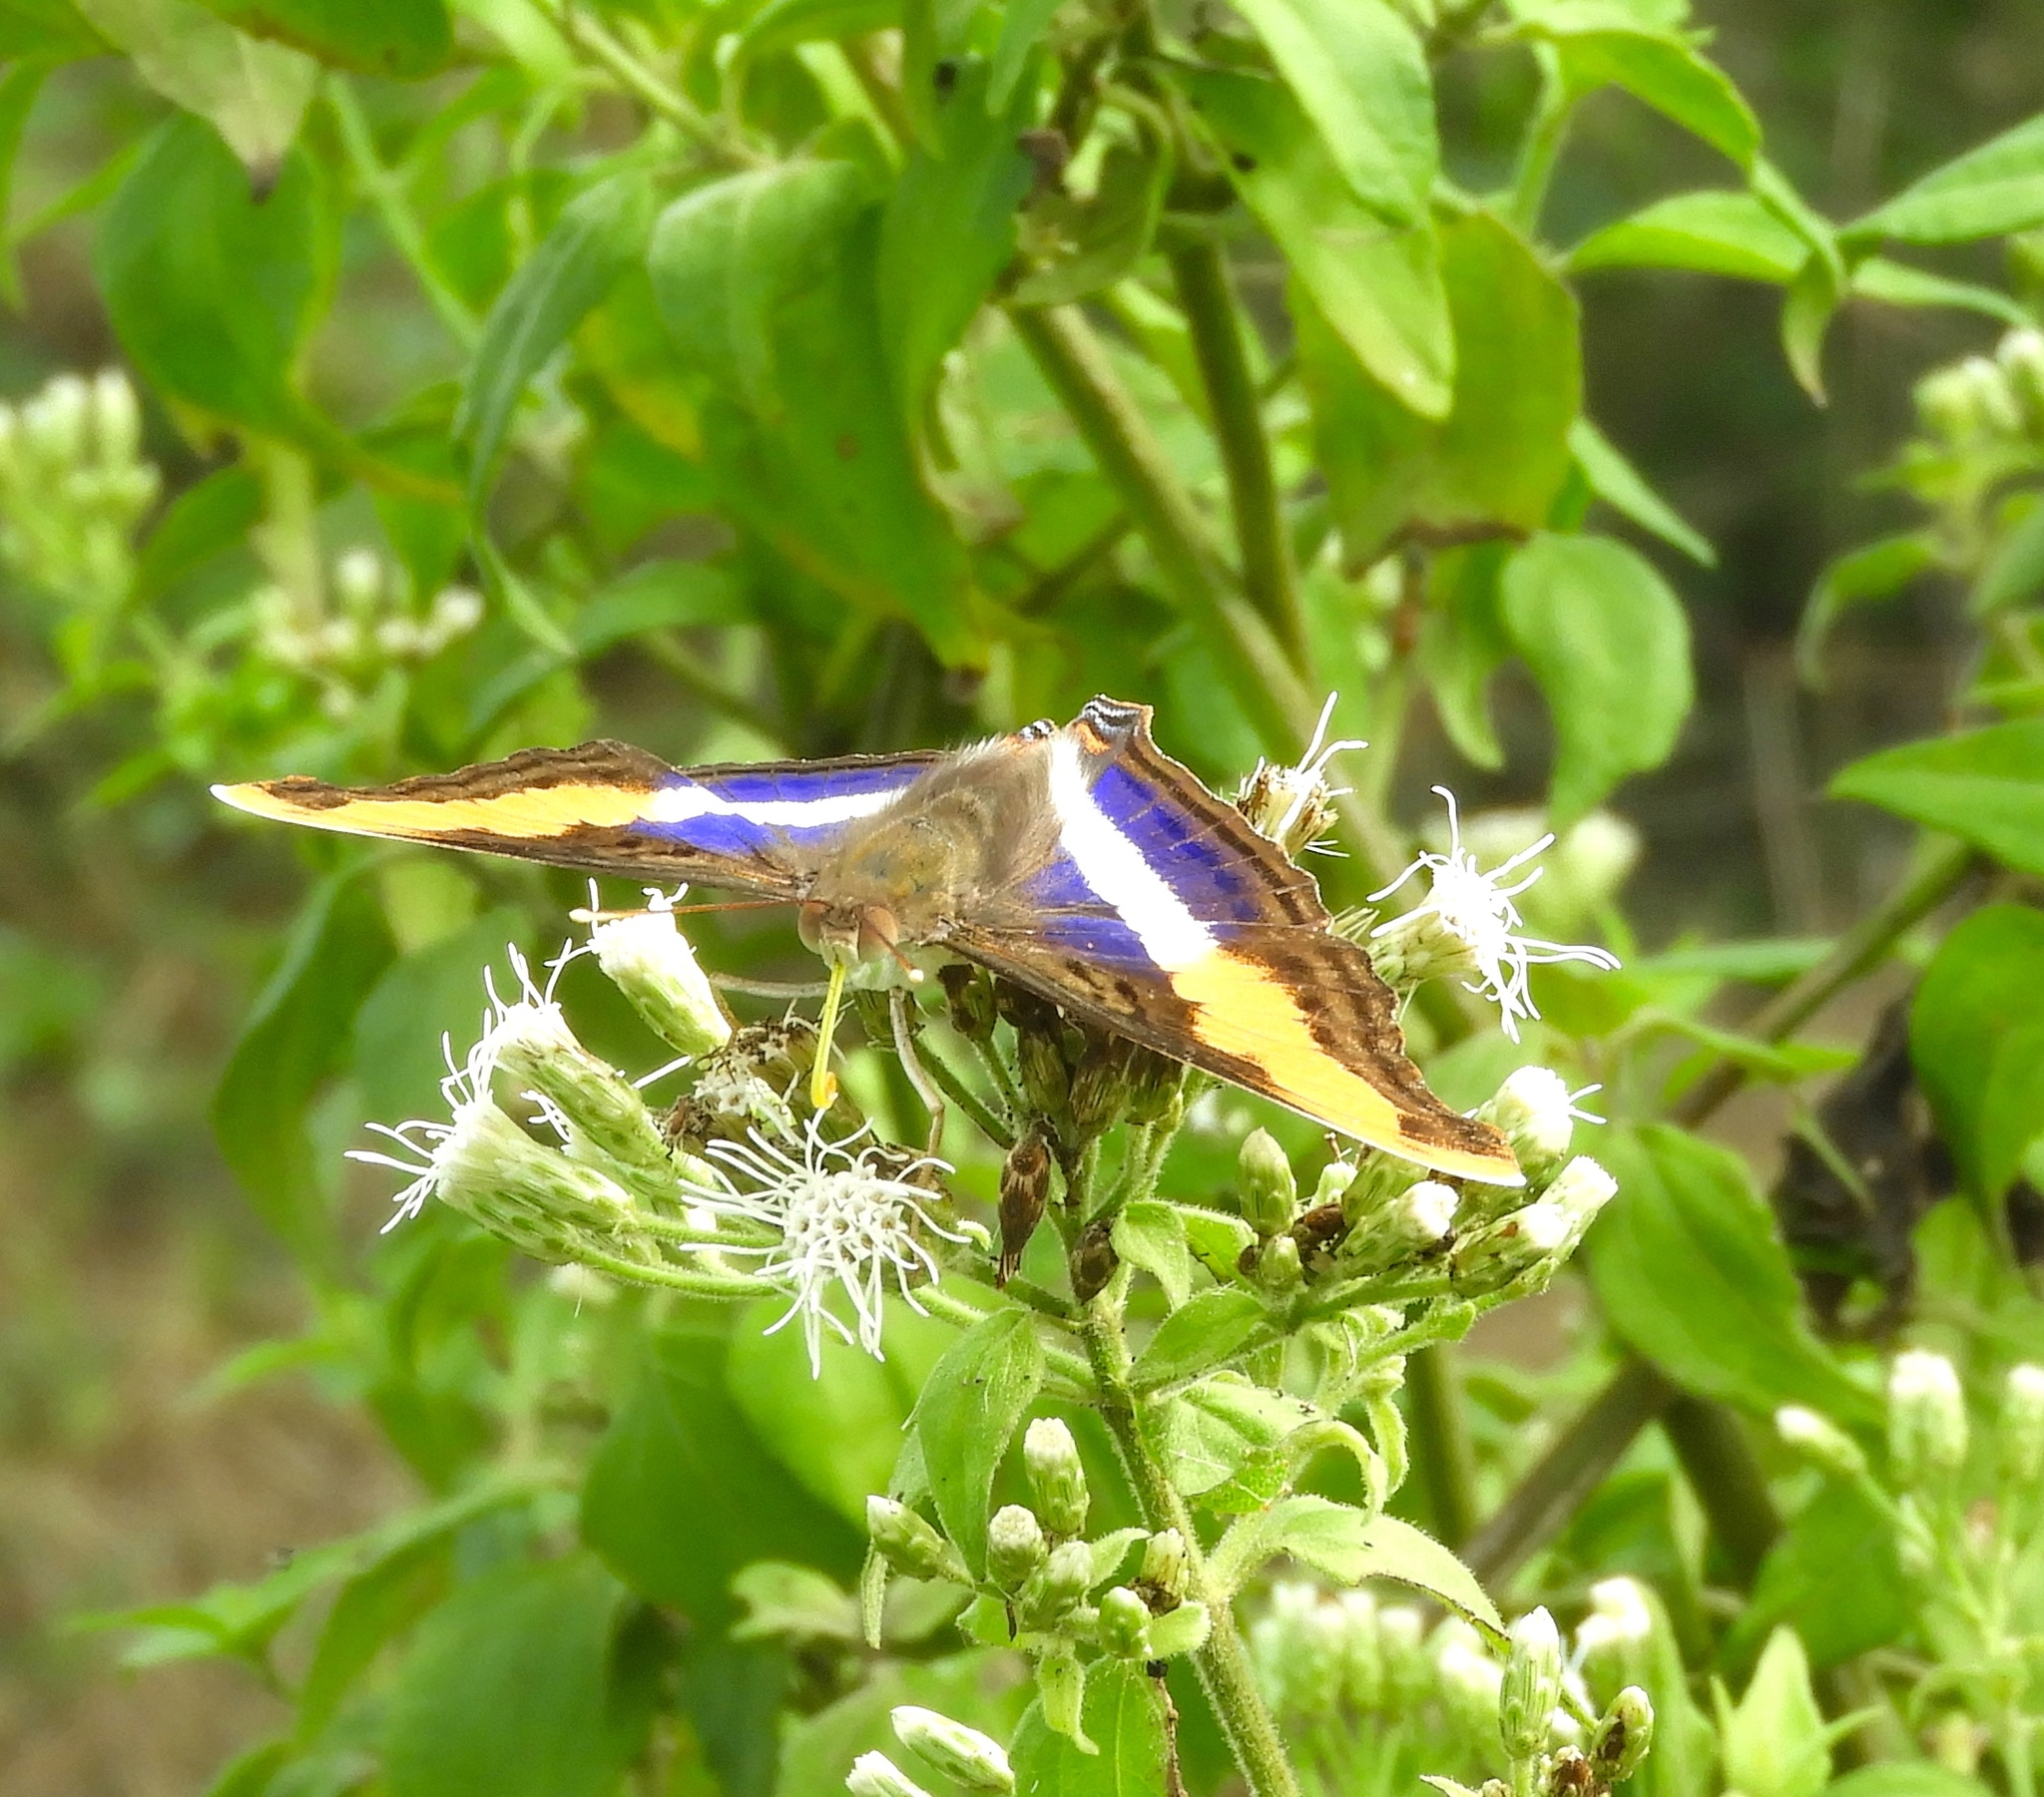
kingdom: Animalia
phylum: Arthropoda
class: Insecta
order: Lepidoptera
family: Nymphalidae
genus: Doxocopa
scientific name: Doxocopa laure
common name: Silver emperor
